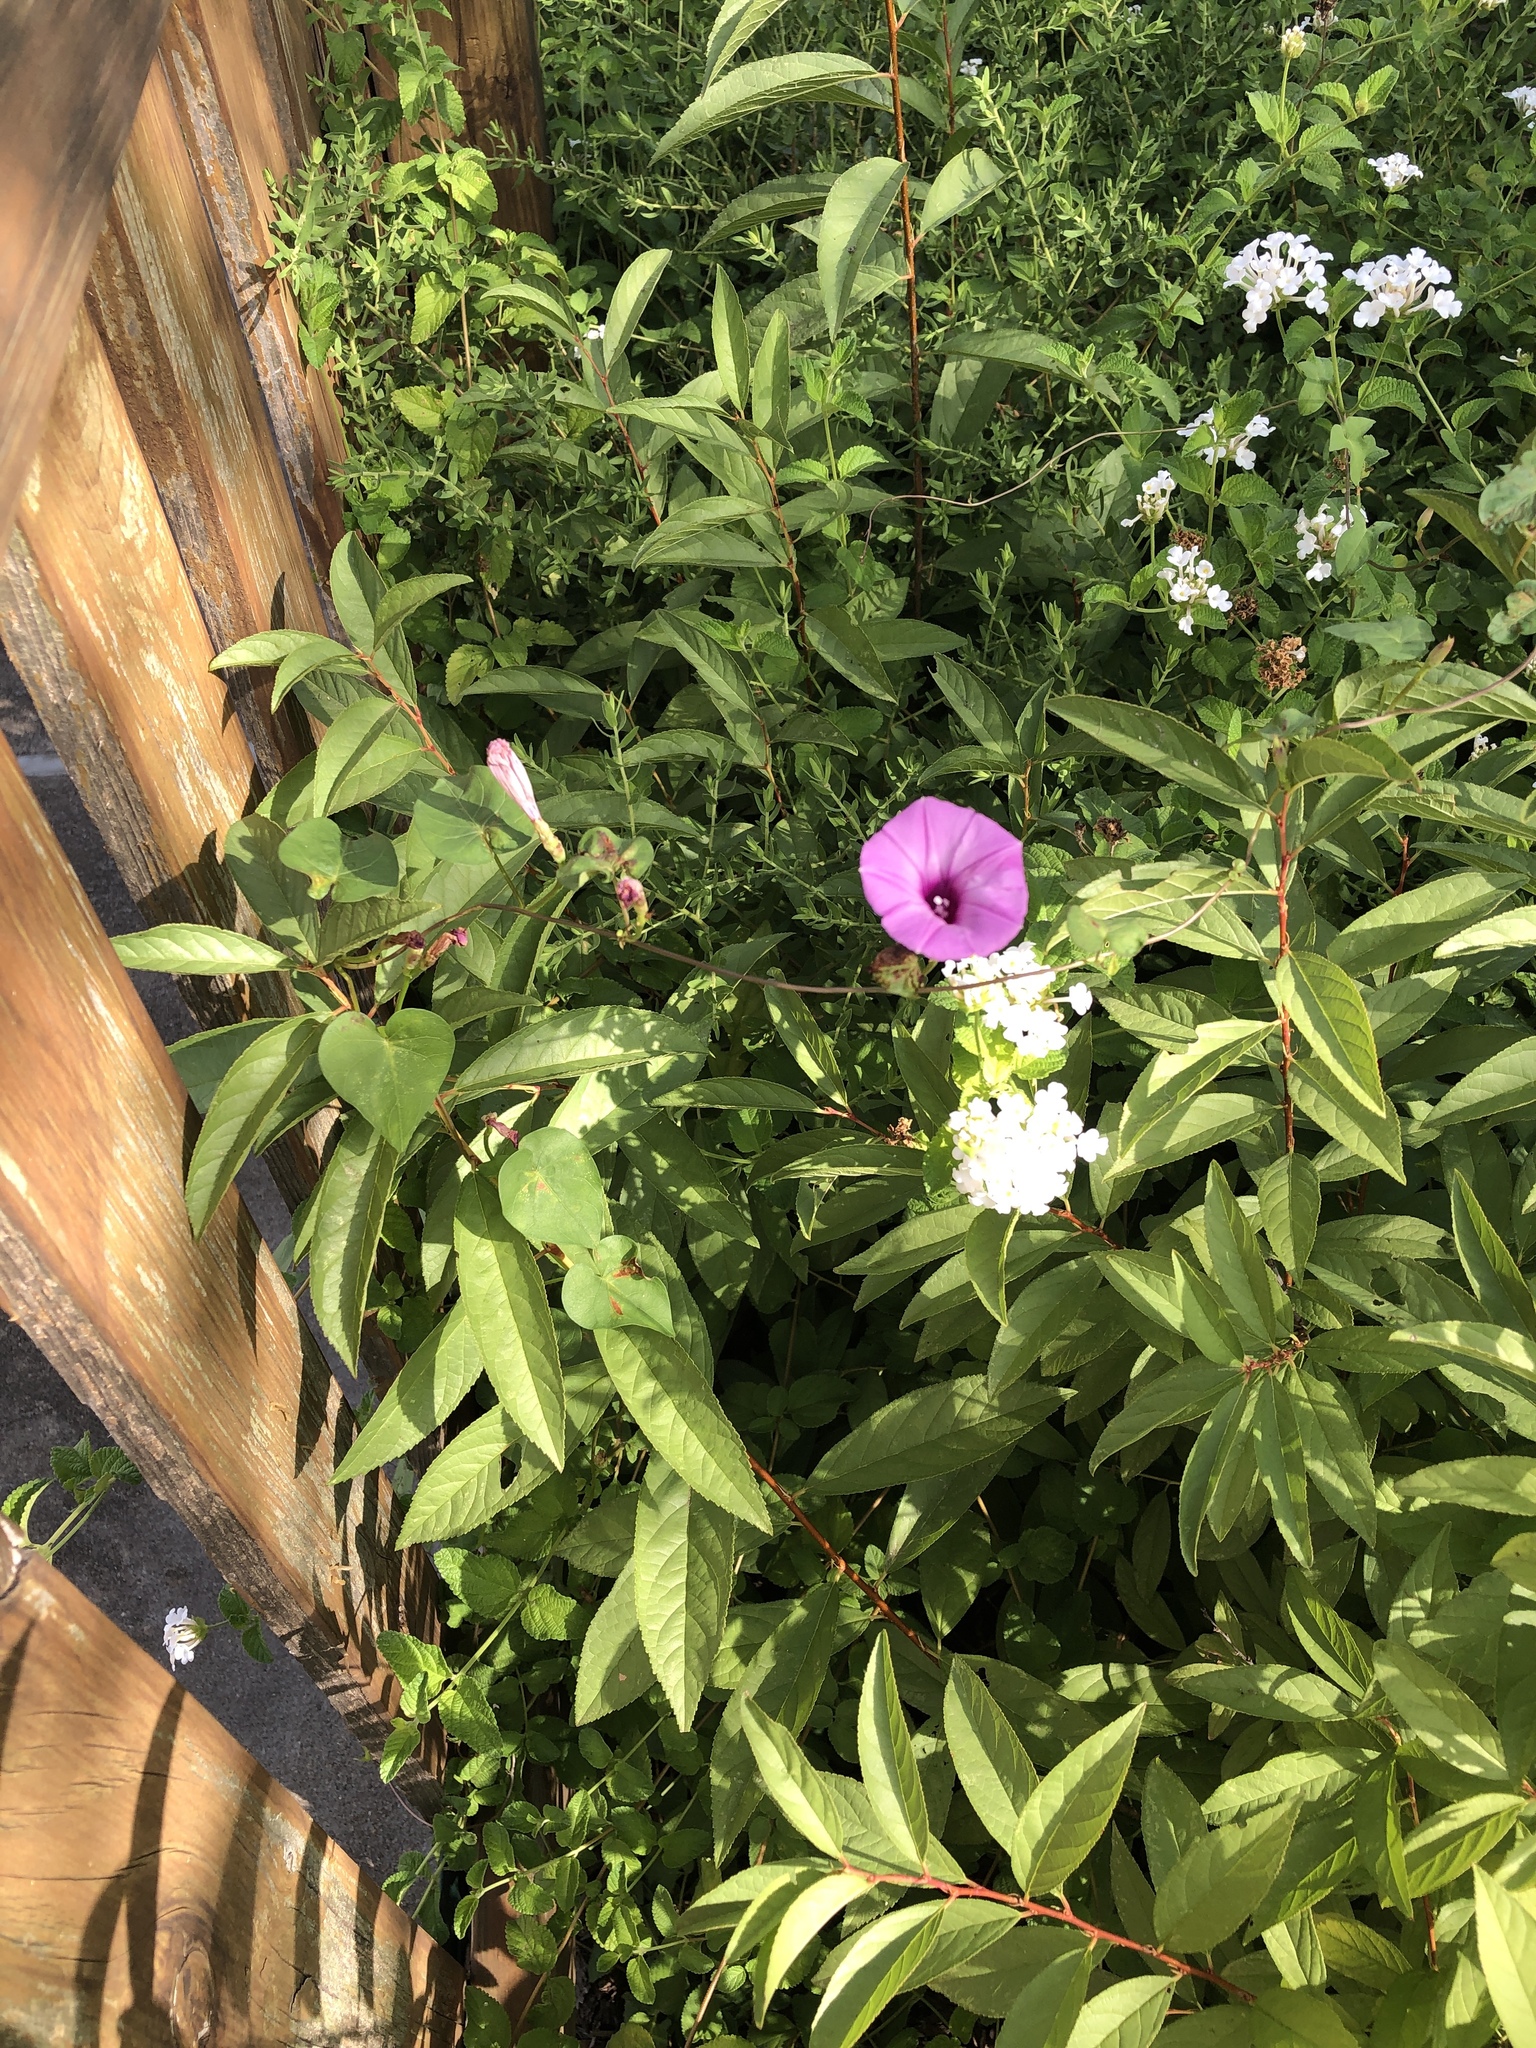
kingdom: Plantae
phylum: Tracheophyta
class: Magnoliopsida
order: Solanales
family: Convolvulaceae
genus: Ipomoea
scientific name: Ipomoea cordatotriloba
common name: Cotton morning glory
